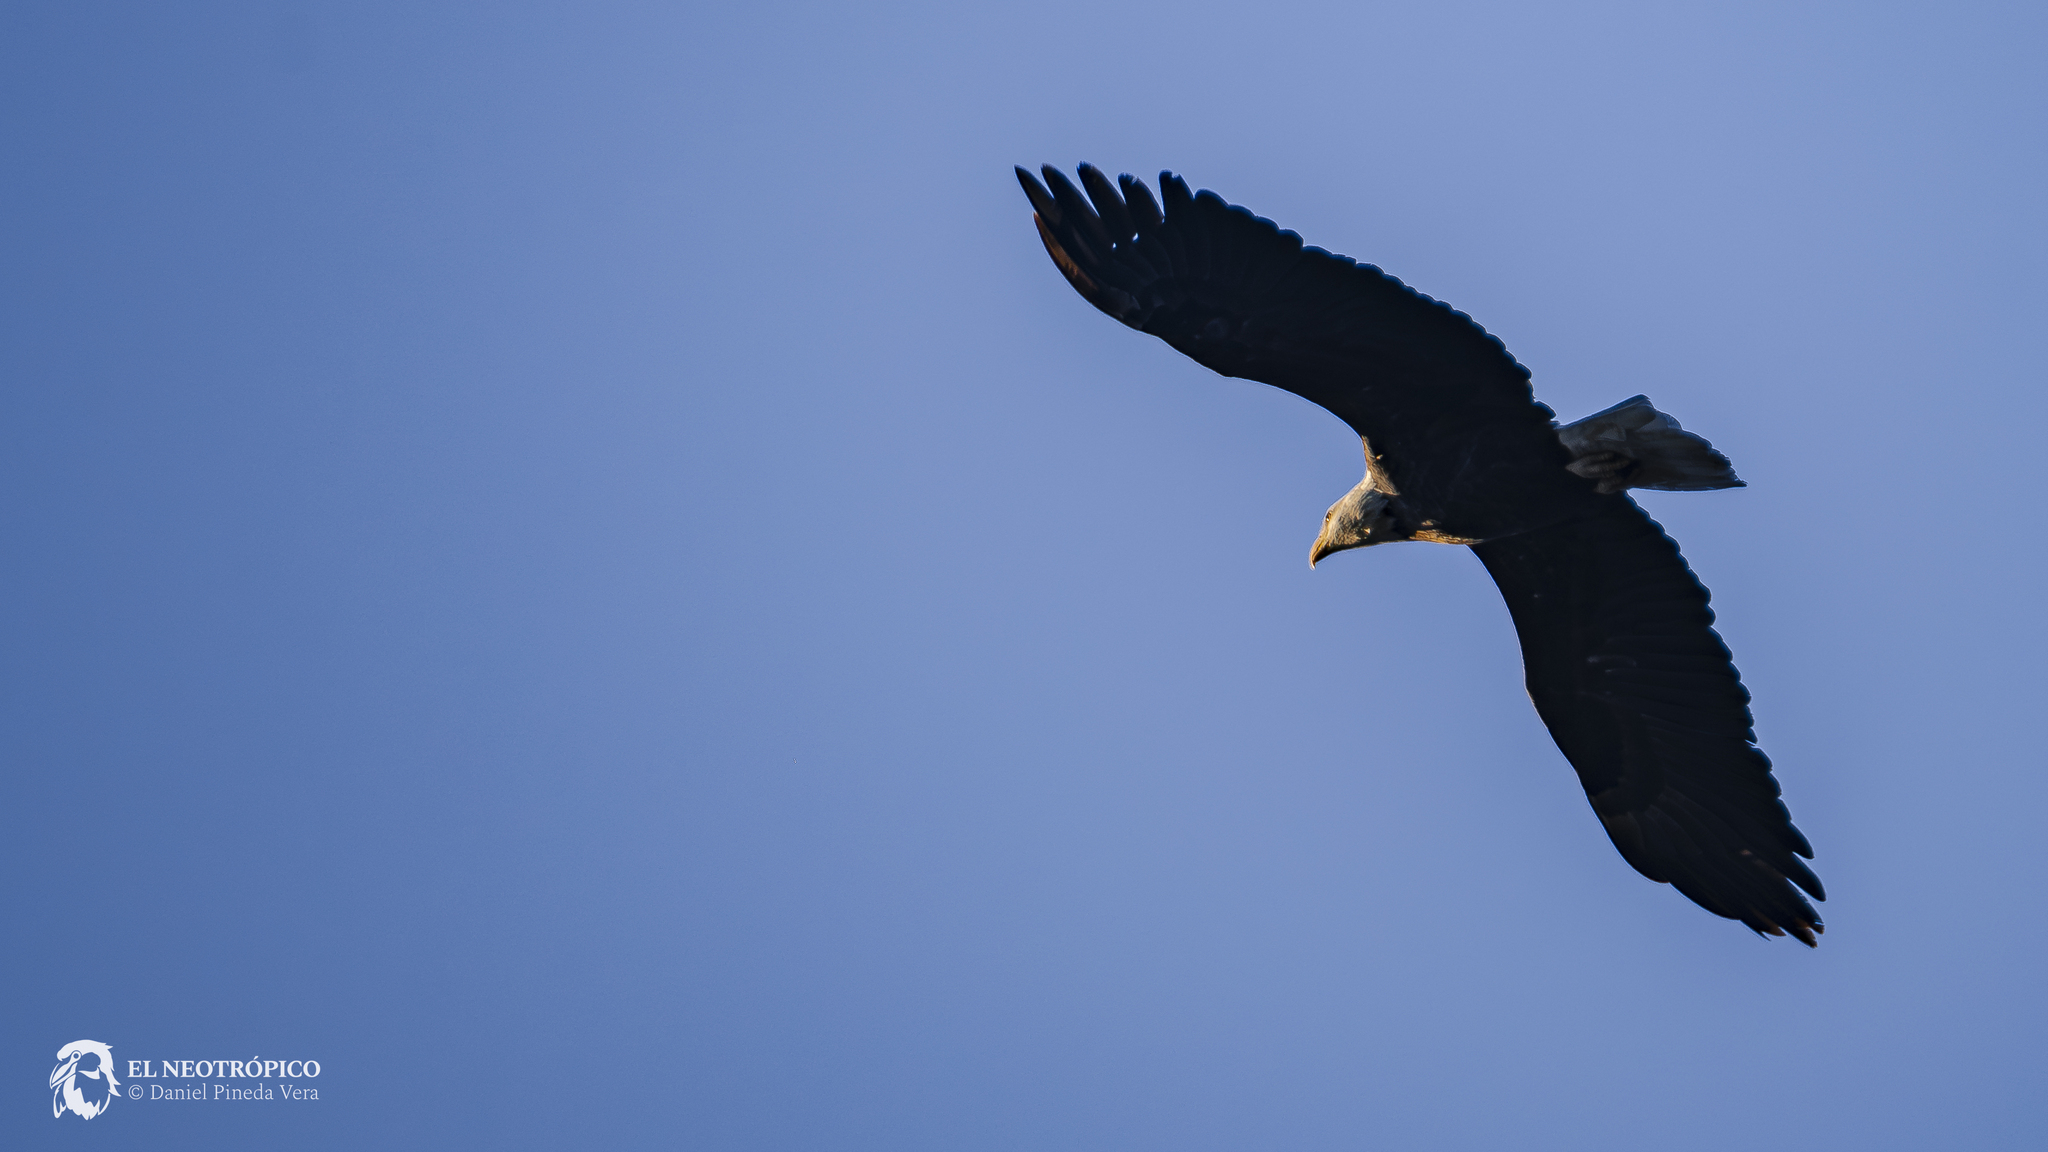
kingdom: Animalia
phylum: Chordata
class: Aves
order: Accipitriformes
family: Accipitridae
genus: Haliaeetus
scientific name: Haliaeetus leucocephalus
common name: Bald eagle
